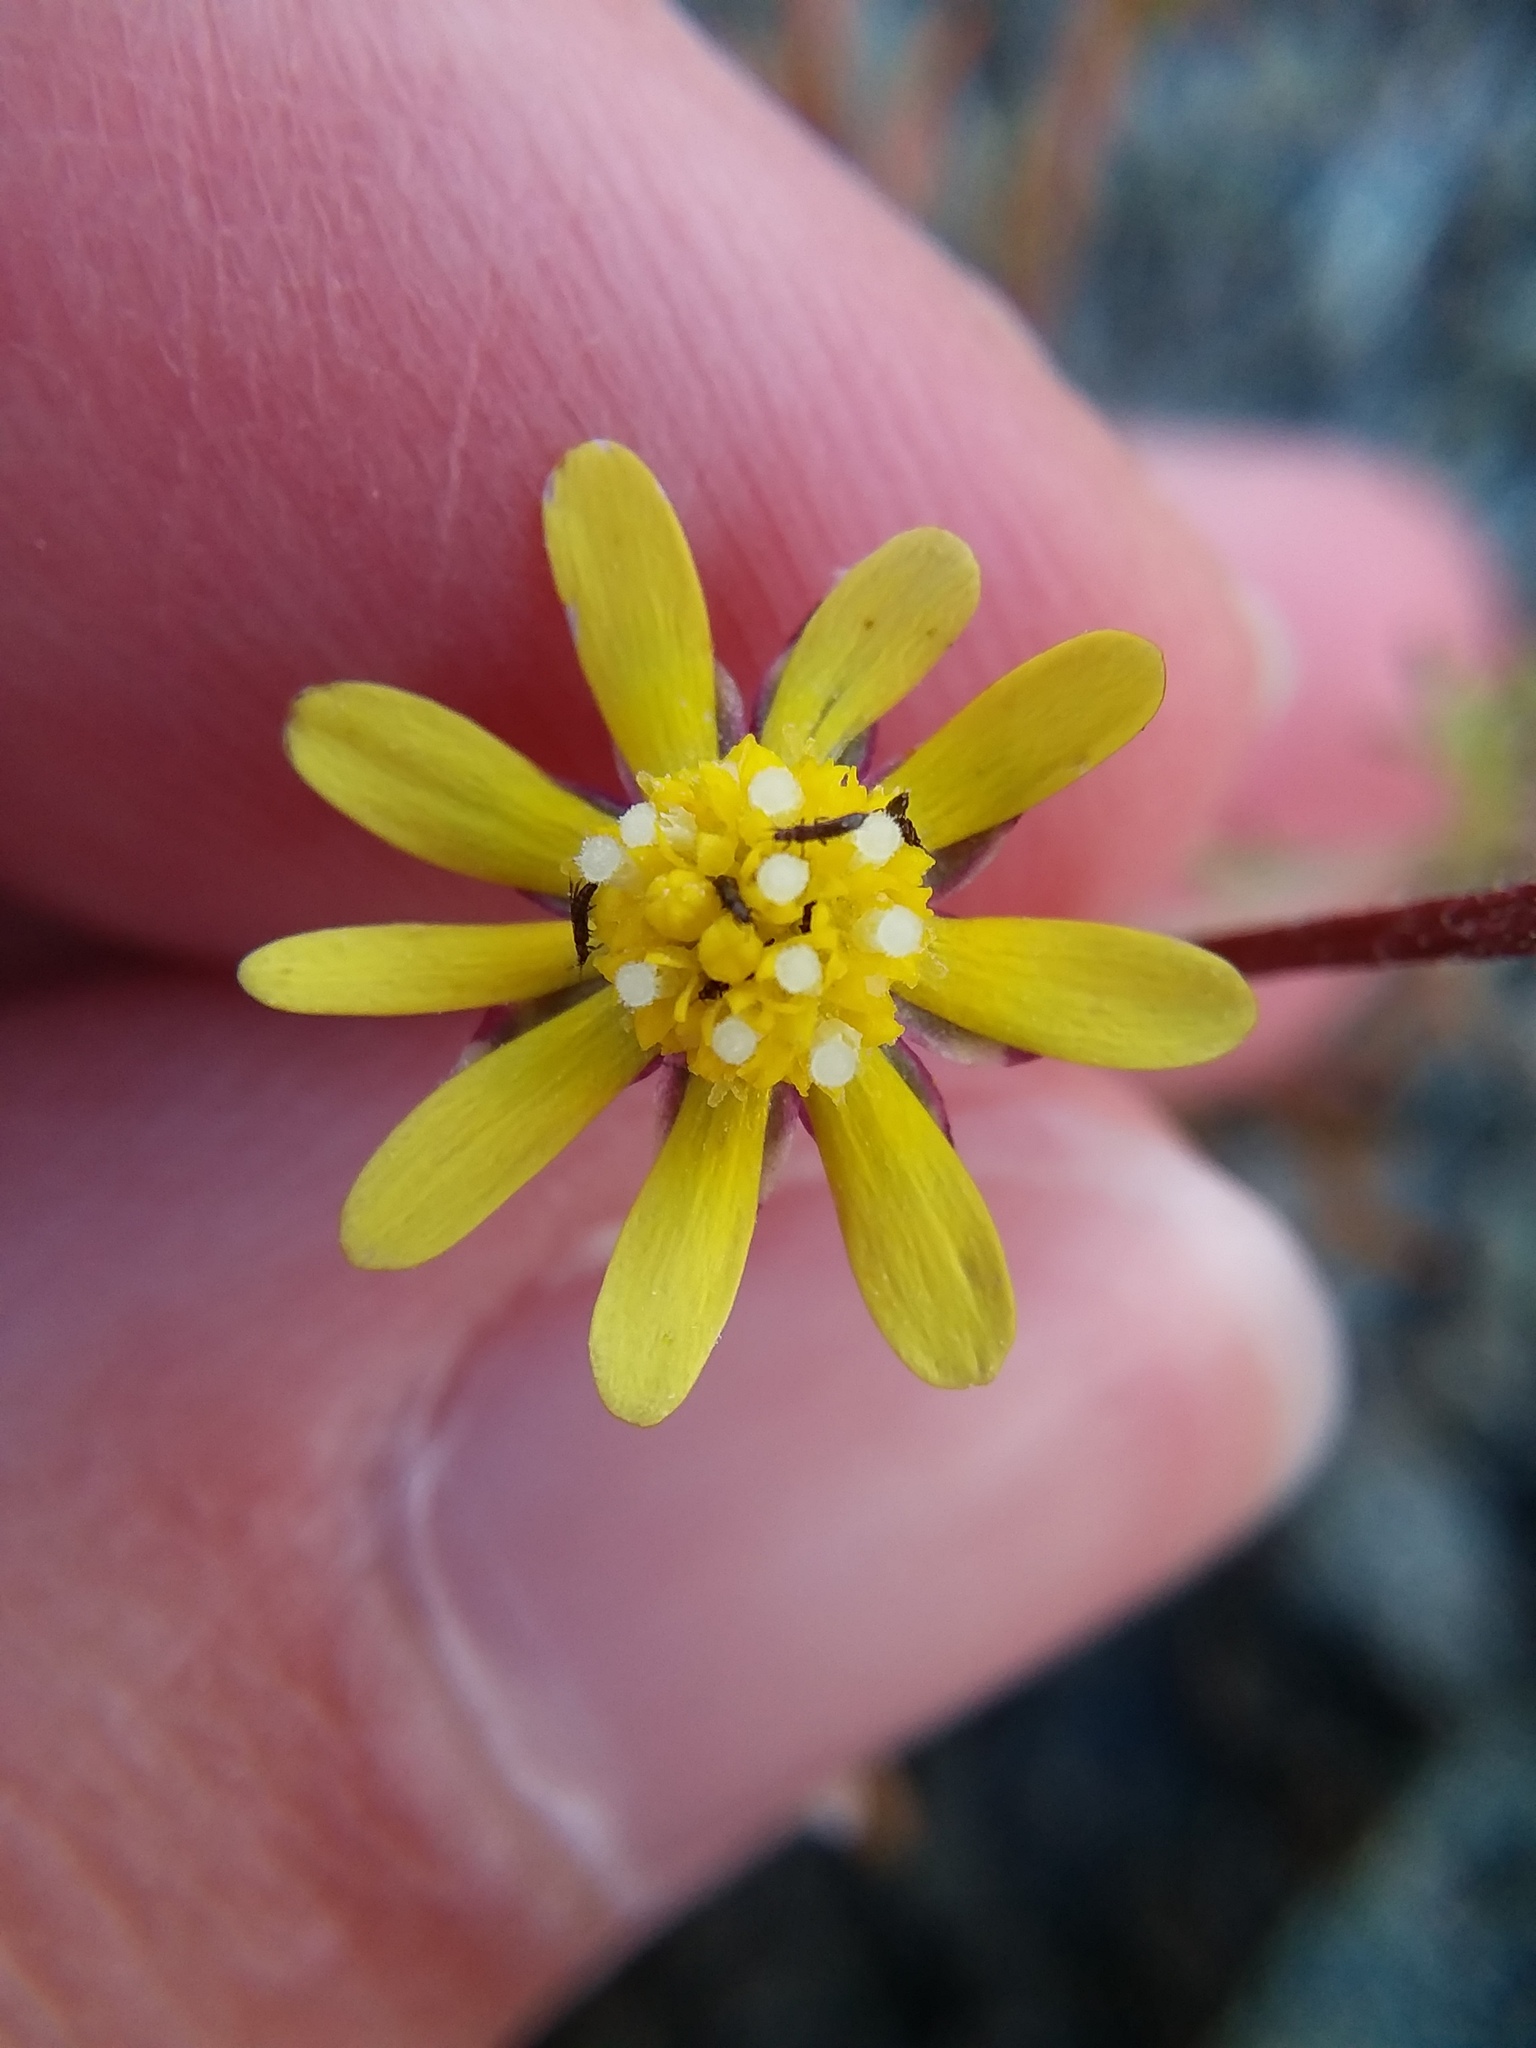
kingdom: Plantae
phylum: Tracheophyta
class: Magnoliopsida
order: Asterales
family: Asteraceae
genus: Blennosperma
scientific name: Blennosperma nanum
